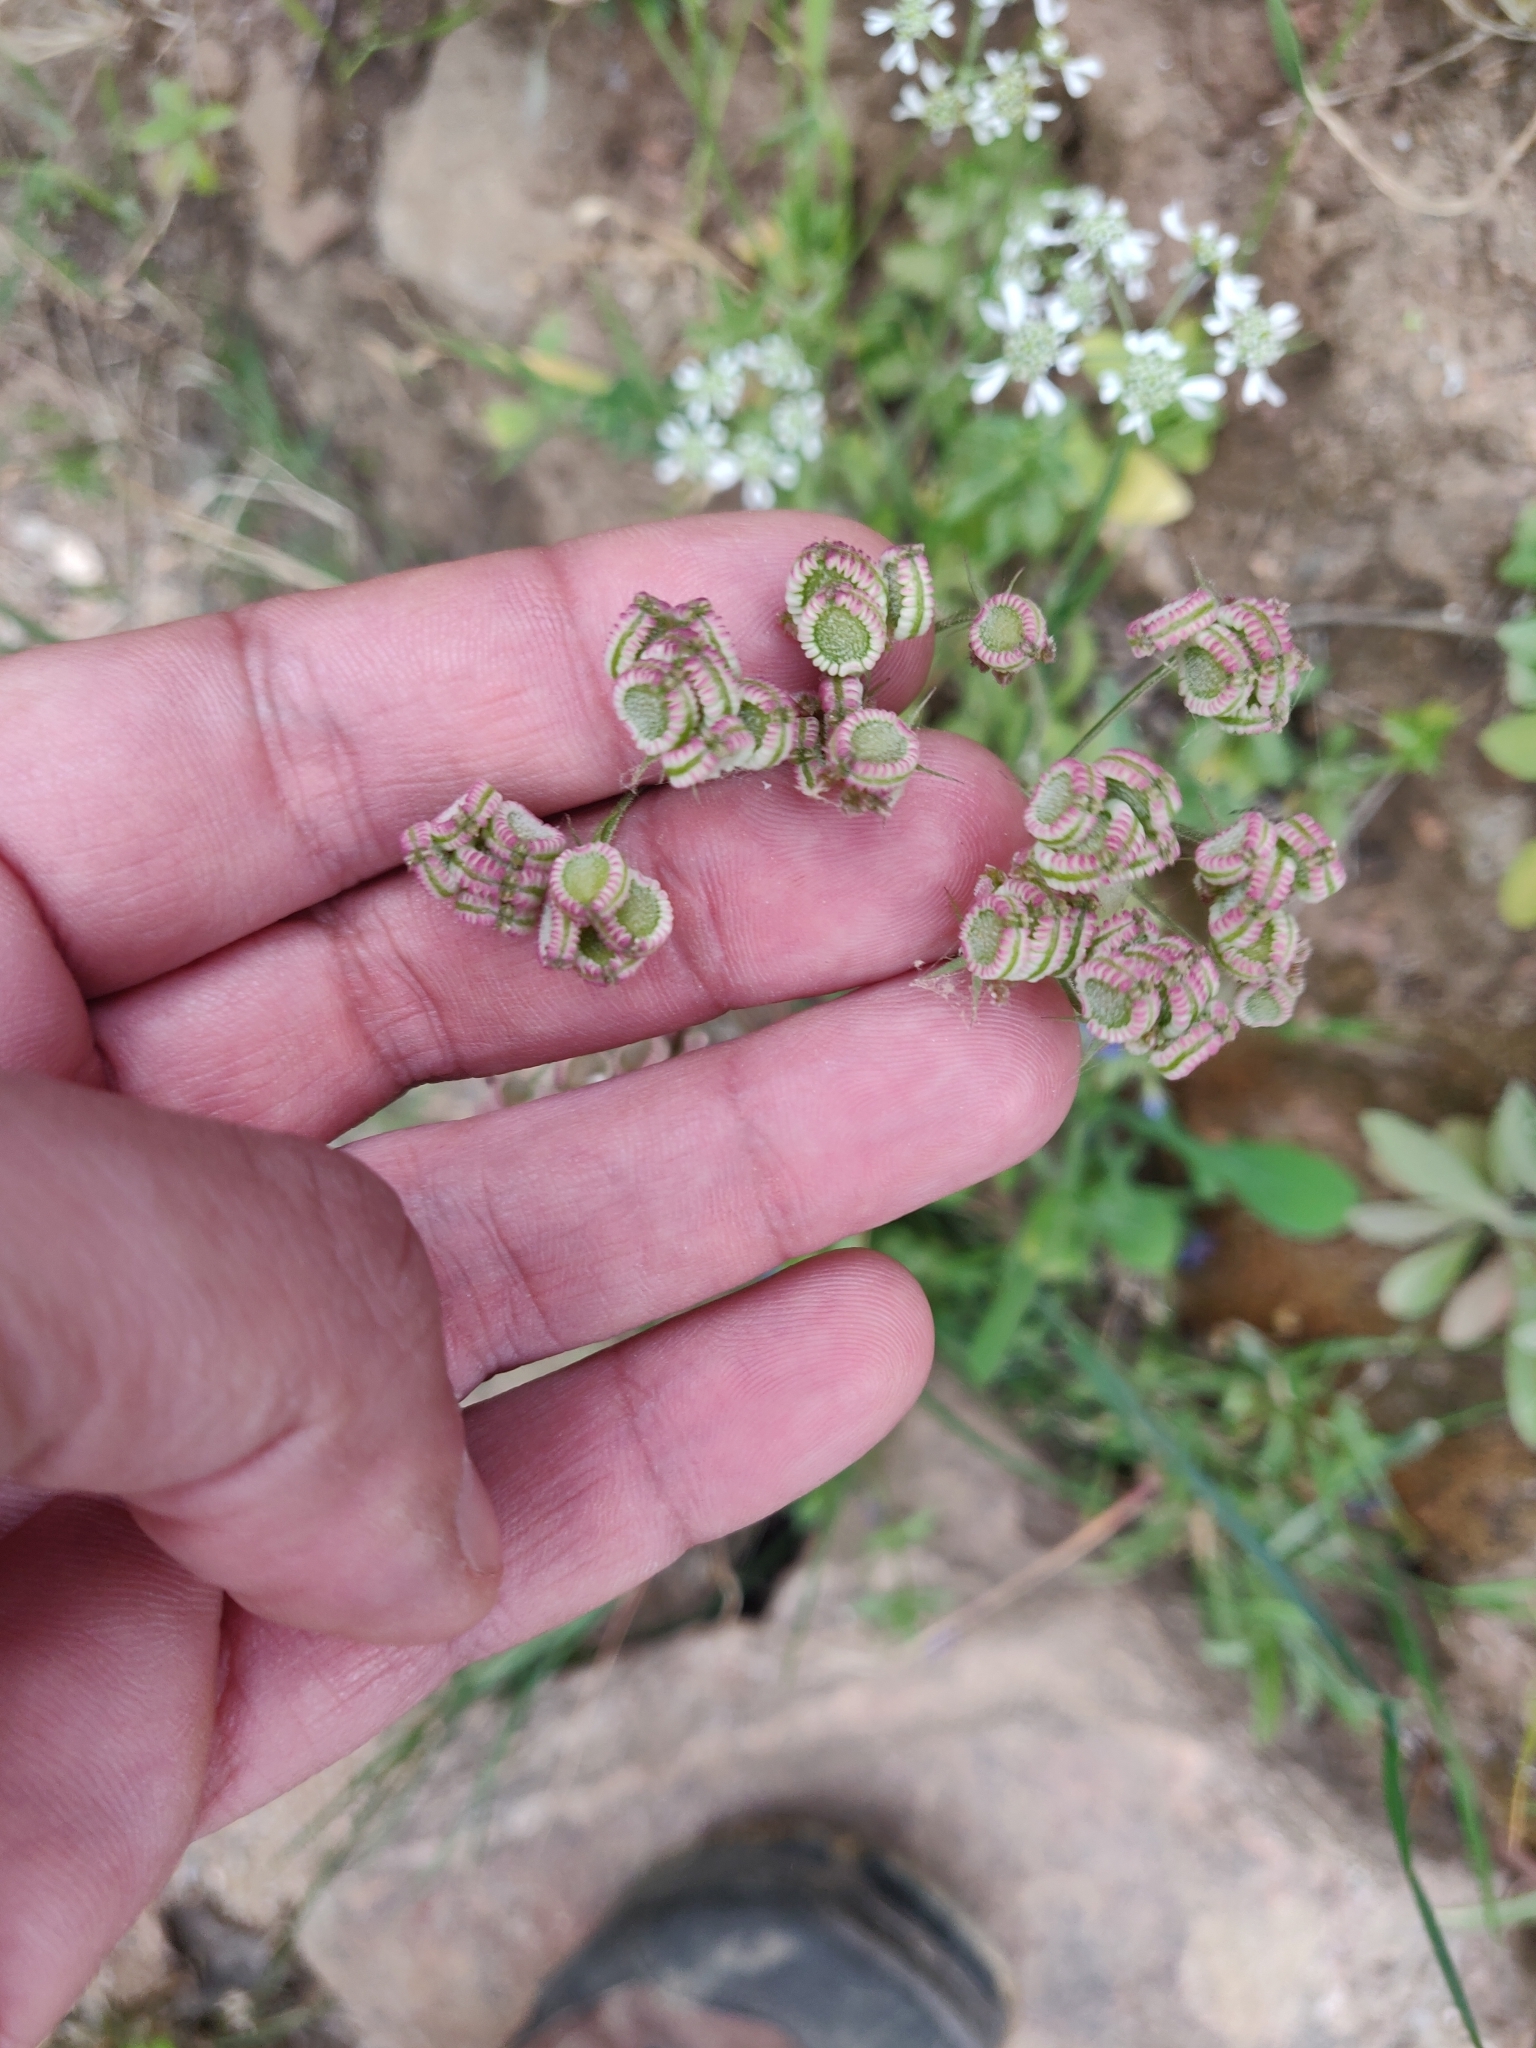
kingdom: Plantae
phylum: Tracheophyta
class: Magnoliopsida
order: Apiales
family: Apiaceae
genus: Tordylium
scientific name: Tordylium apulum
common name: Mediterranean hartwort
